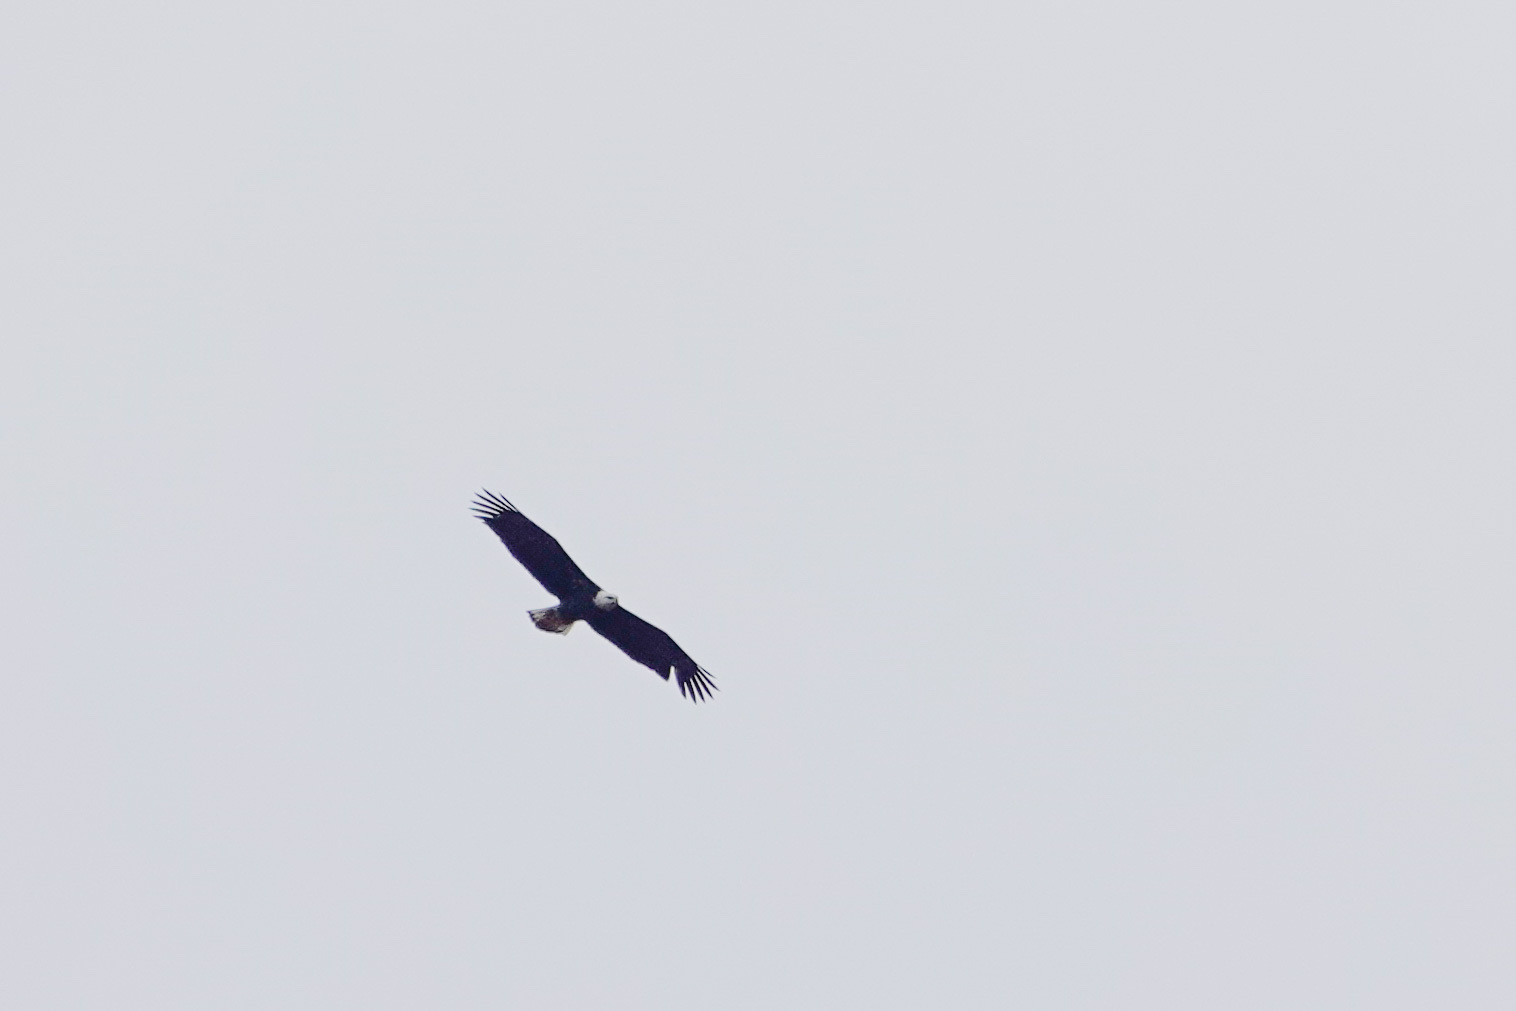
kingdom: Animalia
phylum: Chordata
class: Aves
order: Accipitriformes
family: Accipitridae
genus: Haliaeetus
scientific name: Haliaeetus leucocephalus
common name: Bald eagle
